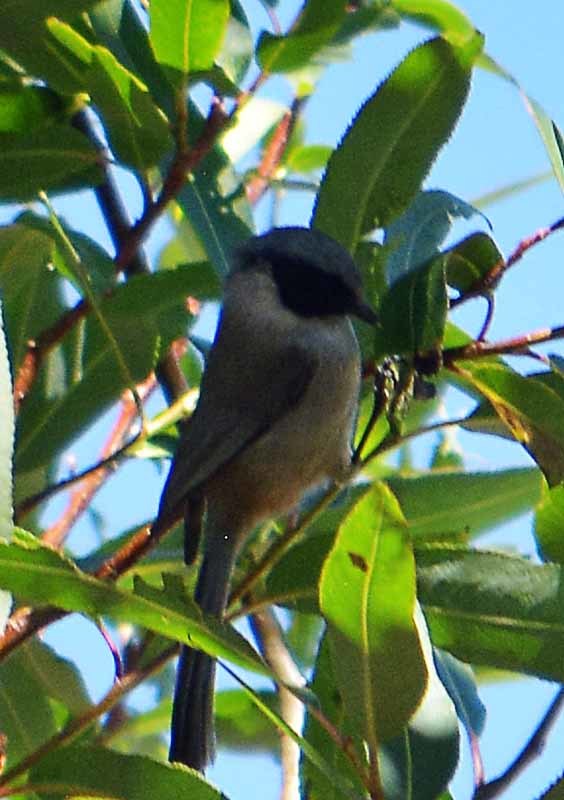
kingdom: Animalia
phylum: Chordata
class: Aves
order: Passeriformes
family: Aegithalidae
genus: Psaltriparus
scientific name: Psaltriparus minimus
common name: American bushtit
